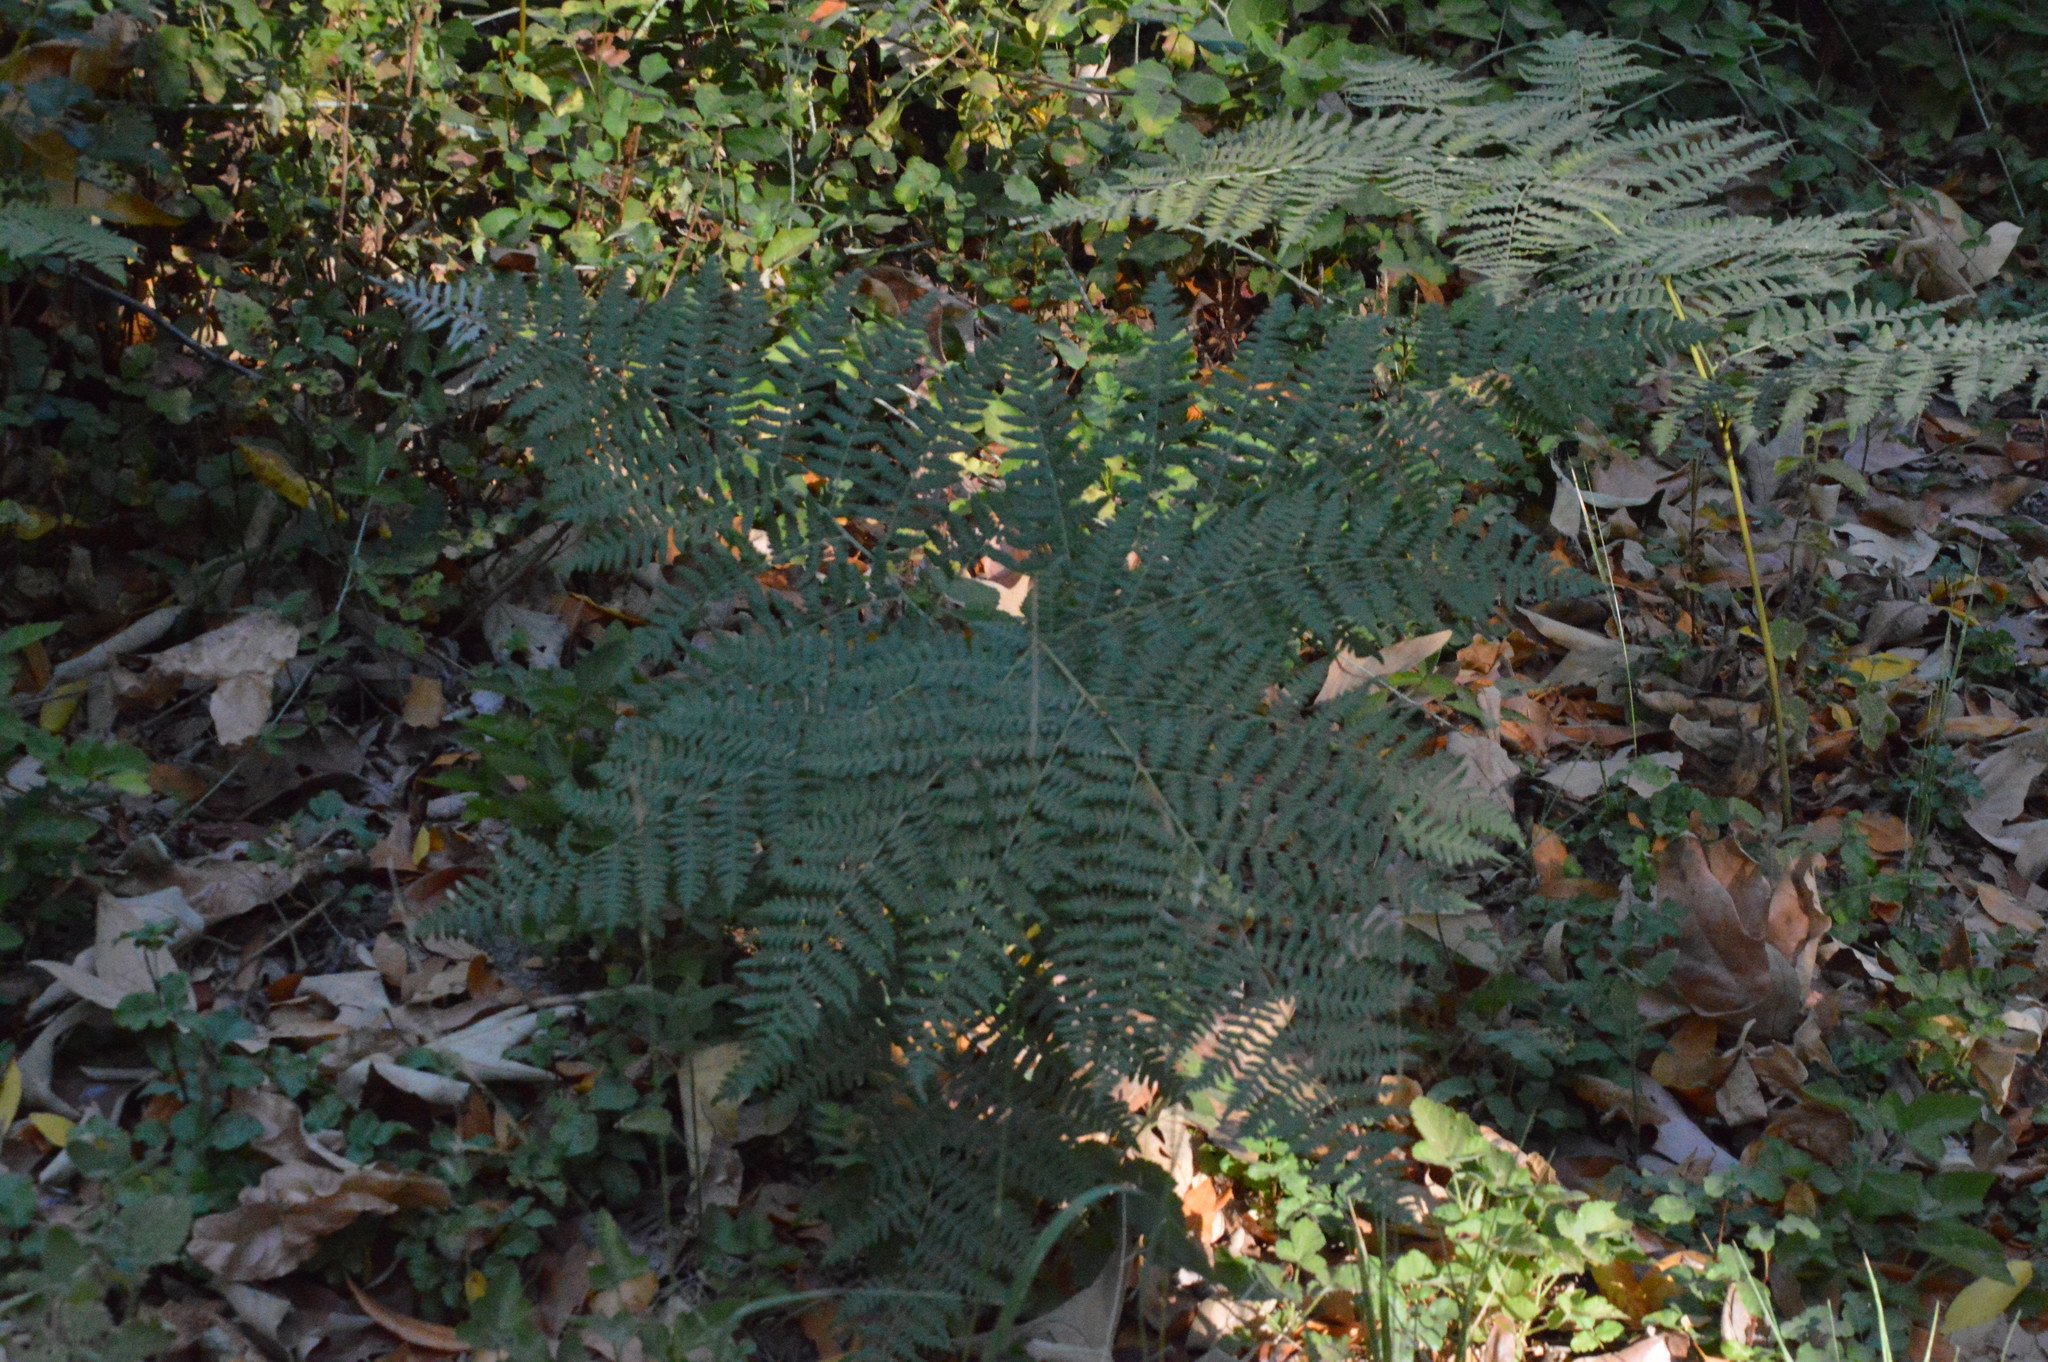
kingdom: Plantae
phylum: Tracheophyta
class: Polypodiopsida
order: Polypodiales
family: Dennstaedtiaceae
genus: Pteridium
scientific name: Pteridium aquilinum
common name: Bracken
